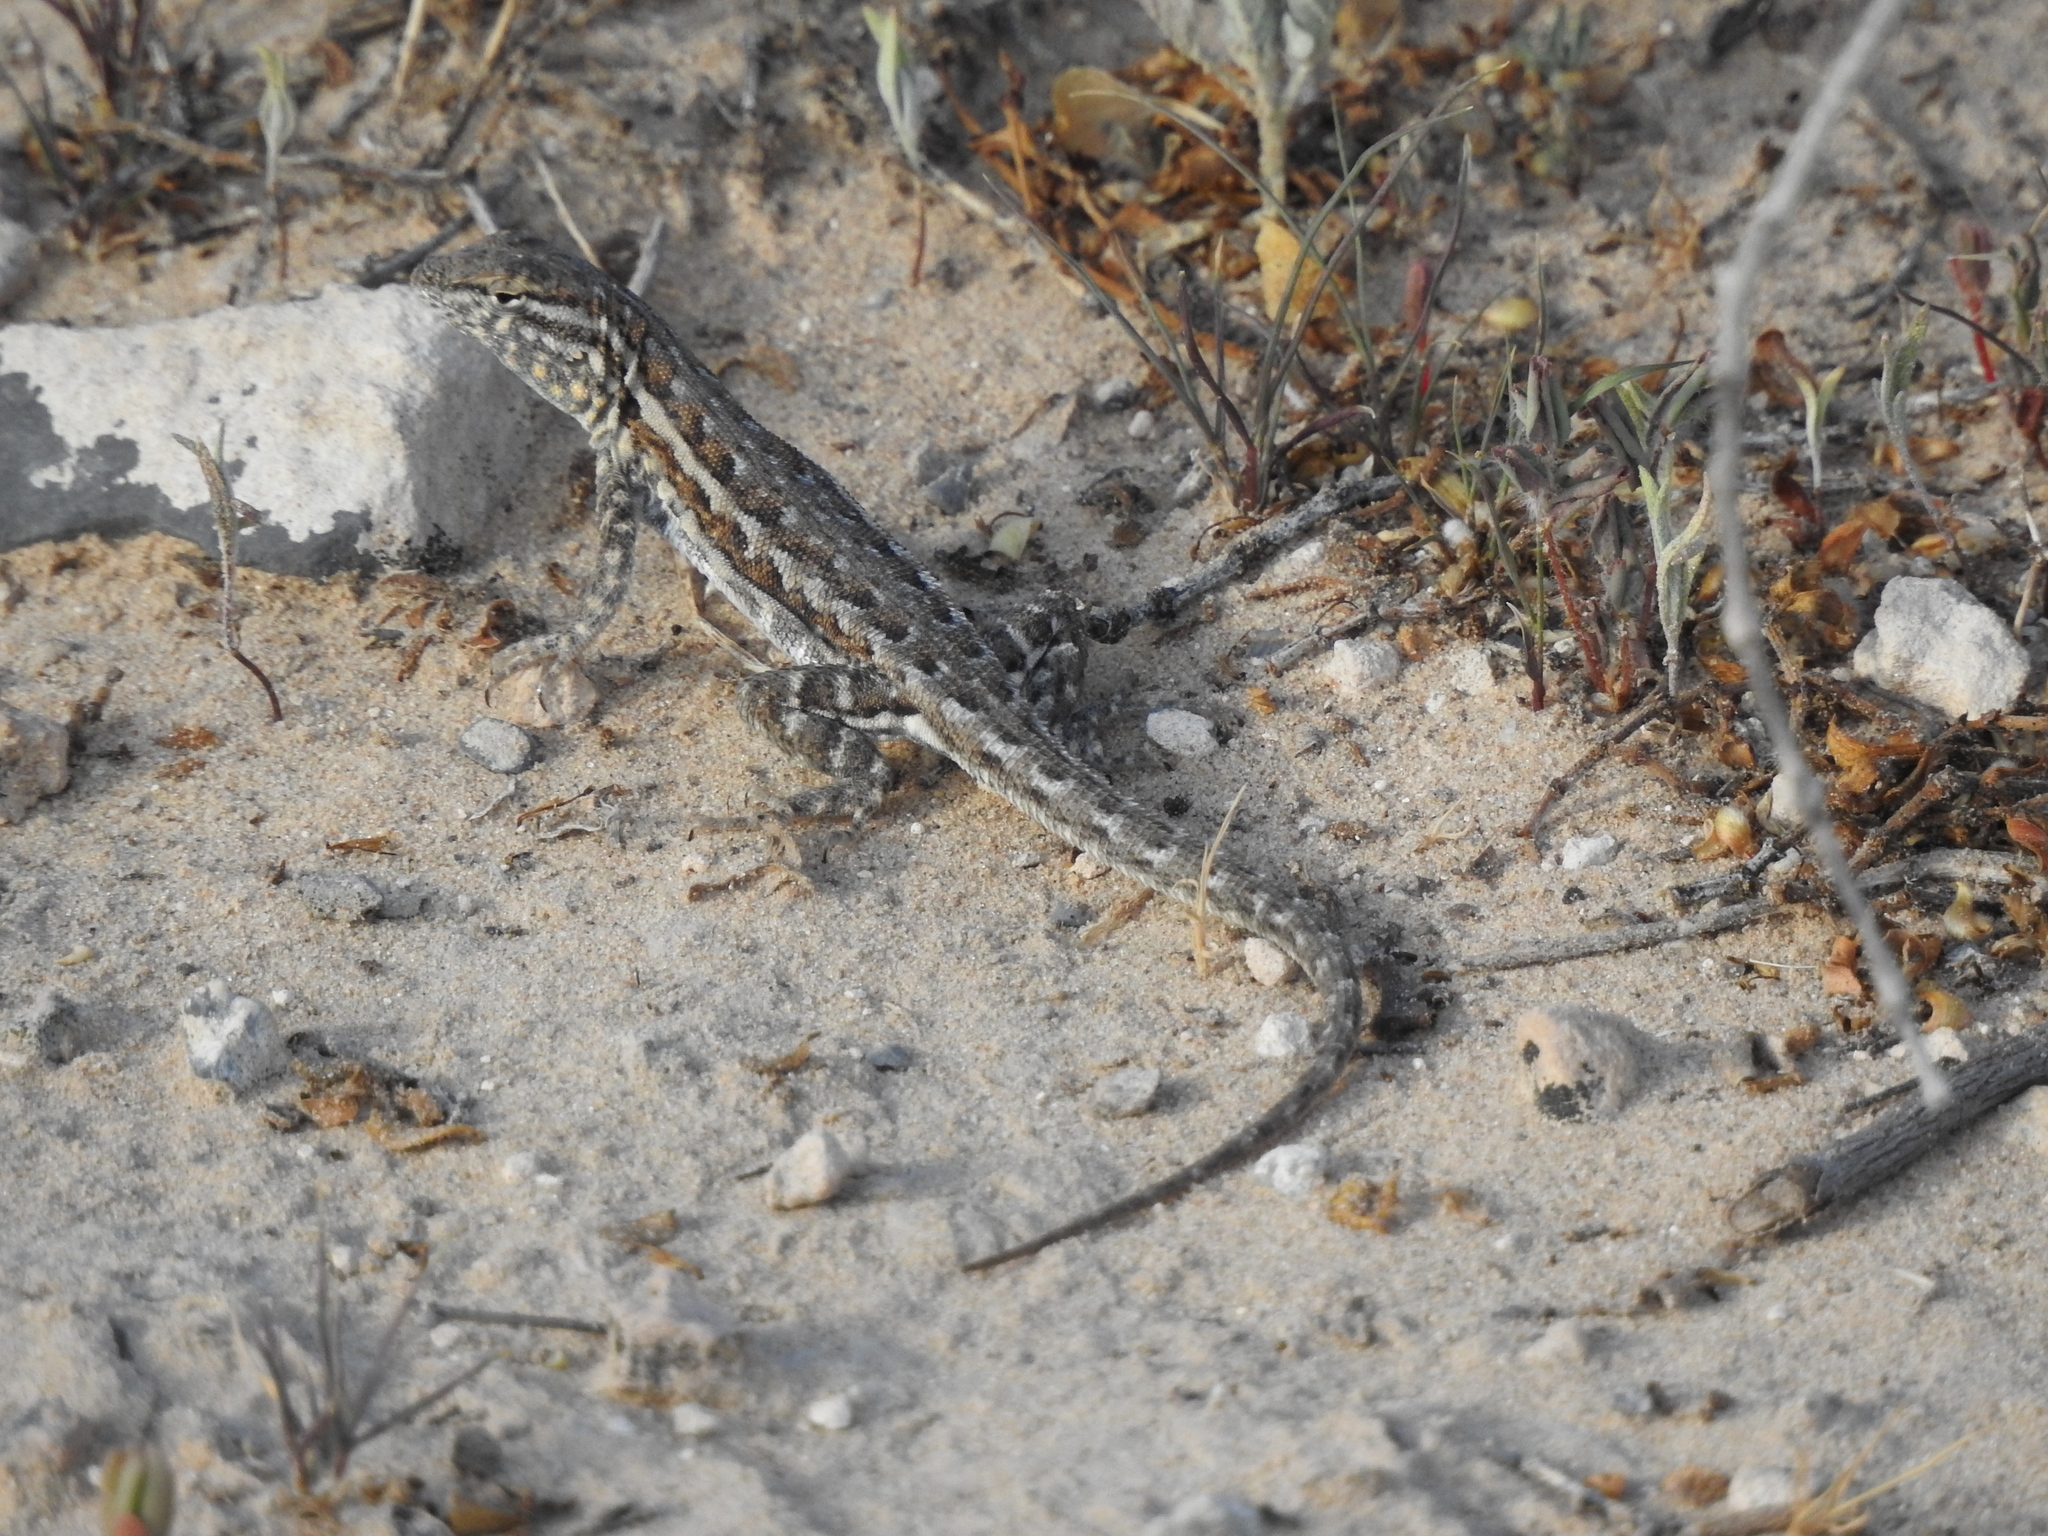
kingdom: Animalia
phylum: Chordata
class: Squamata
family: Phrynosomatidae
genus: Uta
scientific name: Uta stansburiana
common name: Side-blotched lizard
